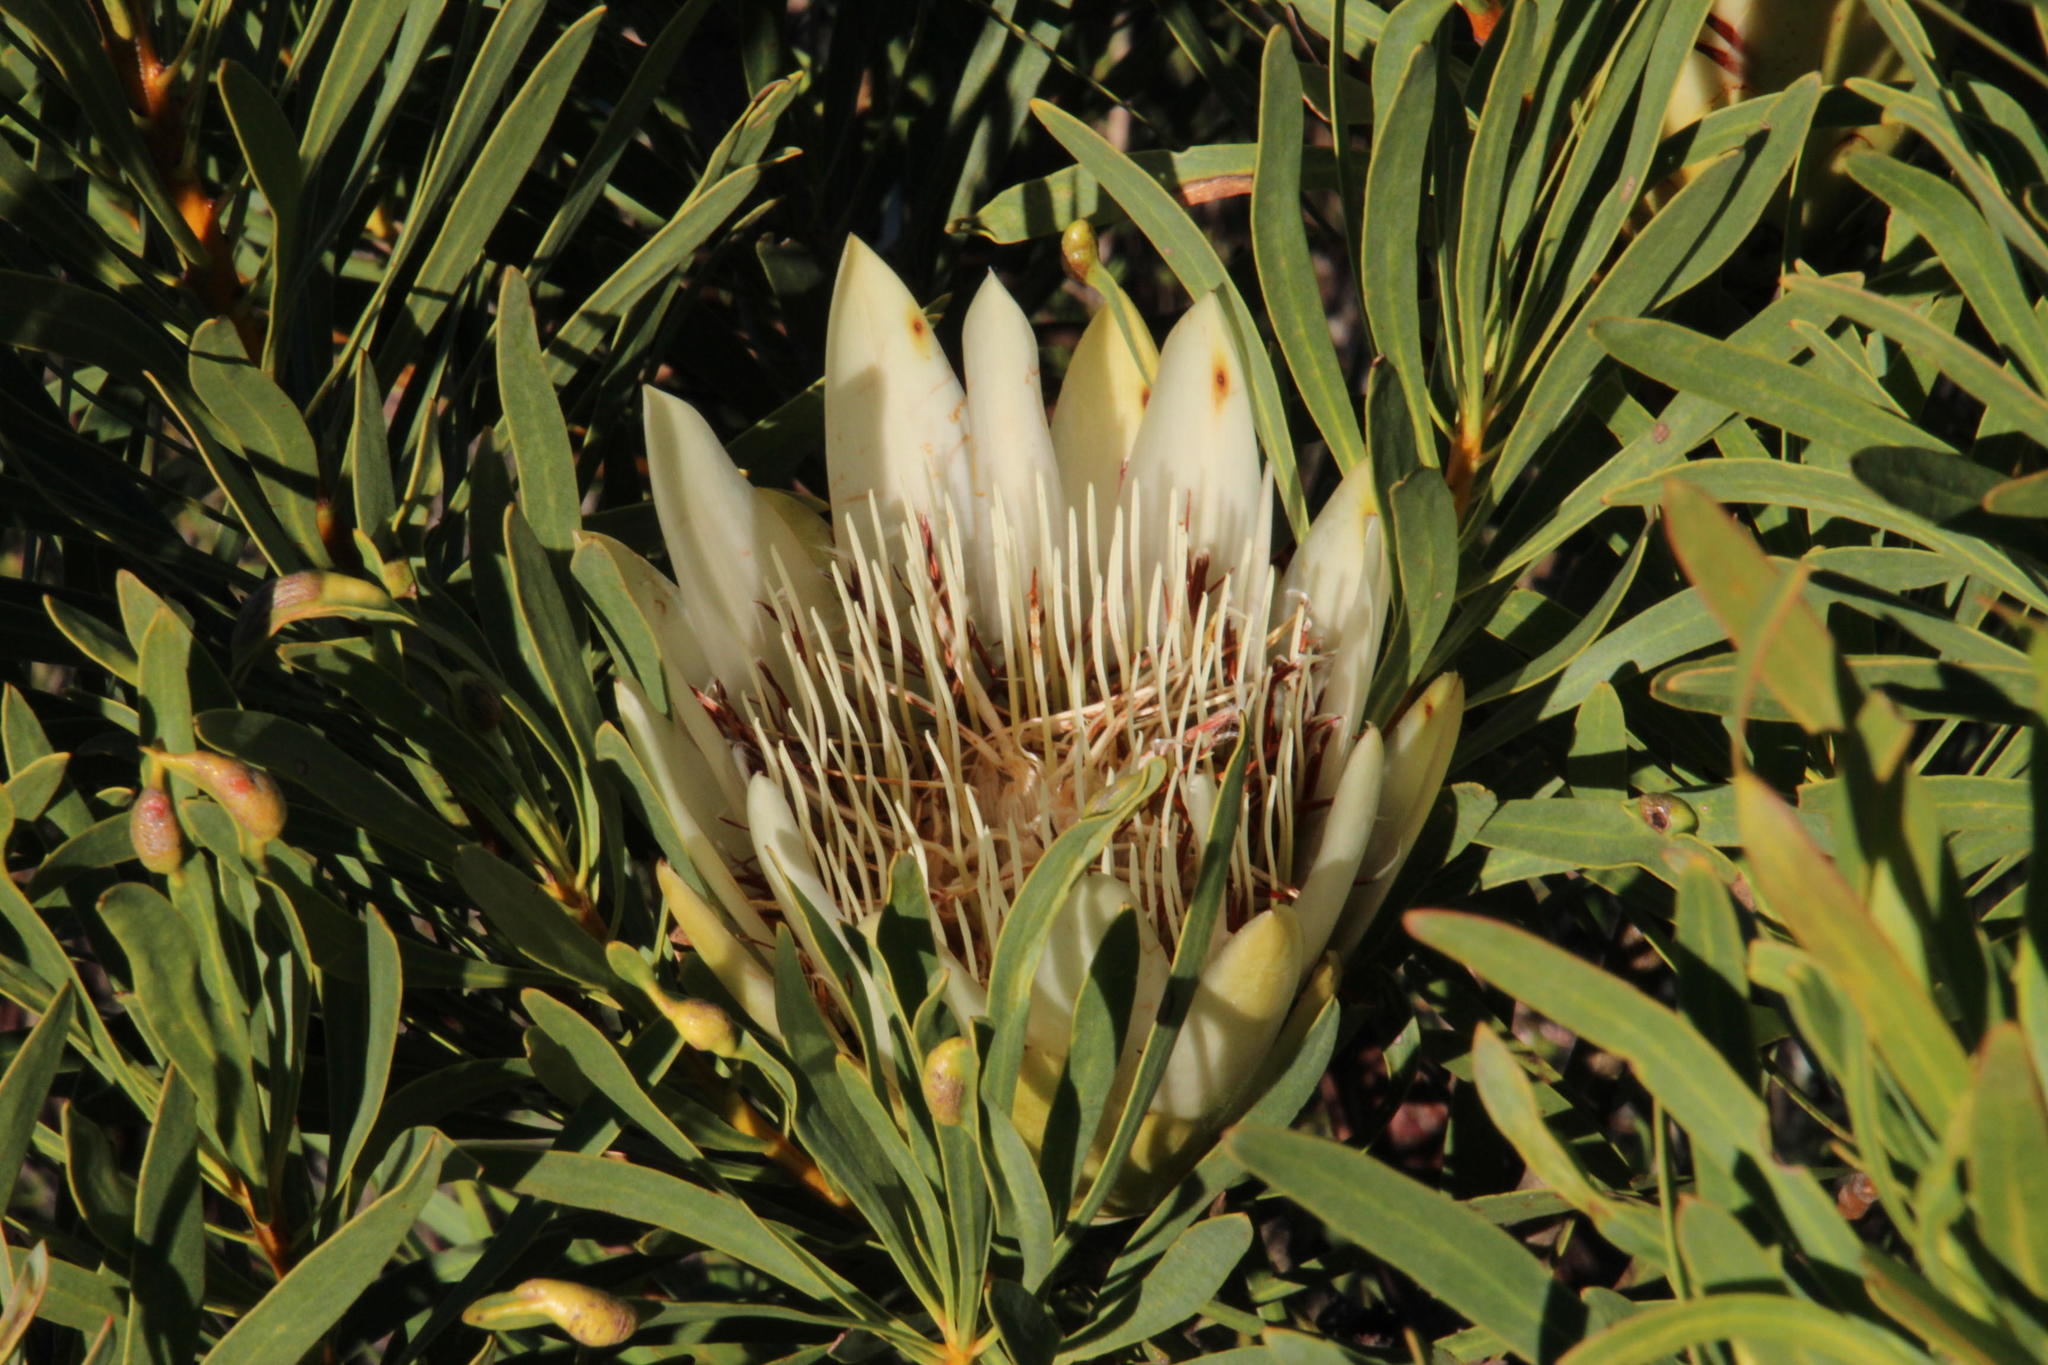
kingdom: Plantae
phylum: Tracheophyta
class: Magnoliopsida
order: Proteales
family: Proteaceae
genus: Protea
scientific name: Protea repens
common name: Sugarbush
